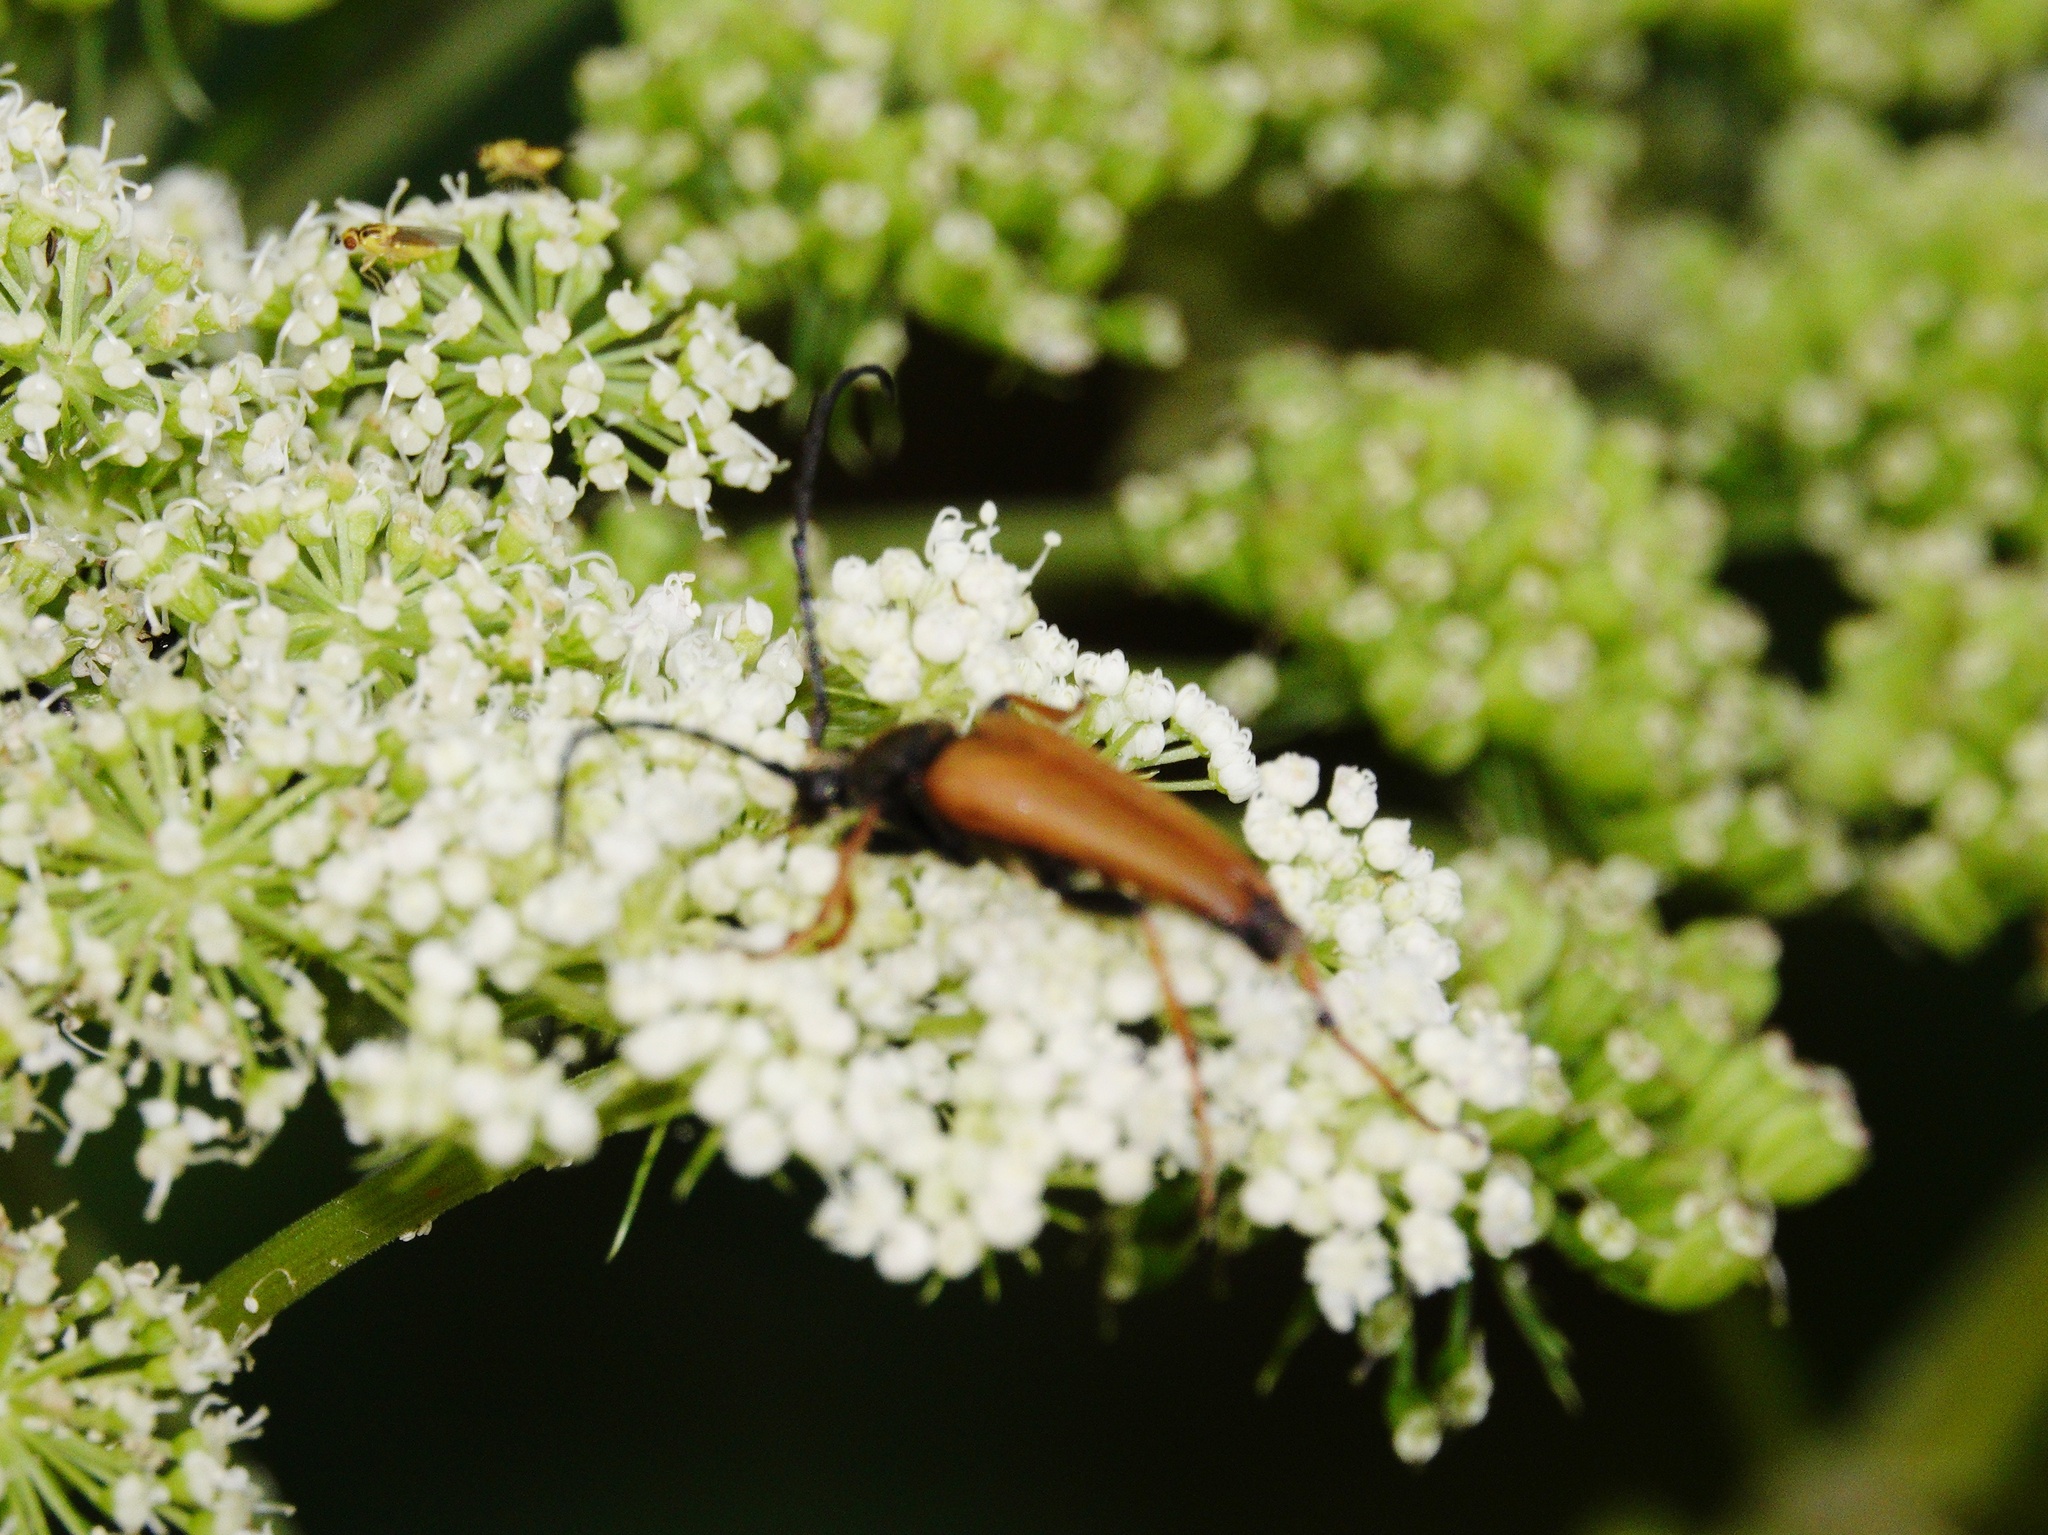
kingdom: Animalia
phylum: Arthropoda
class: Insecta
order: Coleoptera
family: Cerambycidae
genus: Stictoleptura
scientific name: Stictoleptura rubra
